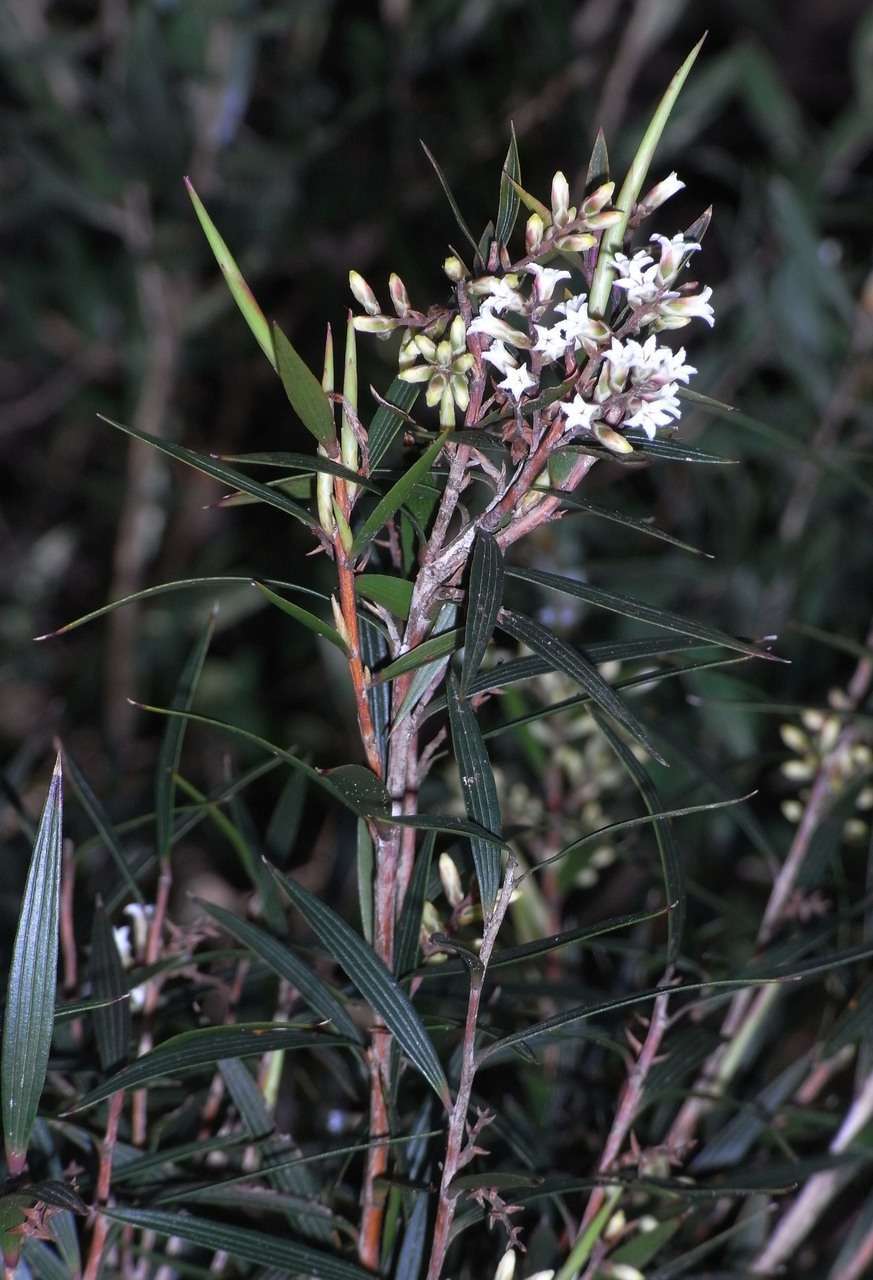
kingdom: Plantae
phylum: Tracheophyta
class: Magnoliopsida
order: Ericales
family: Ericaceae
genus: Leucopogon
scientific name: Leucopogon neurophyllus
